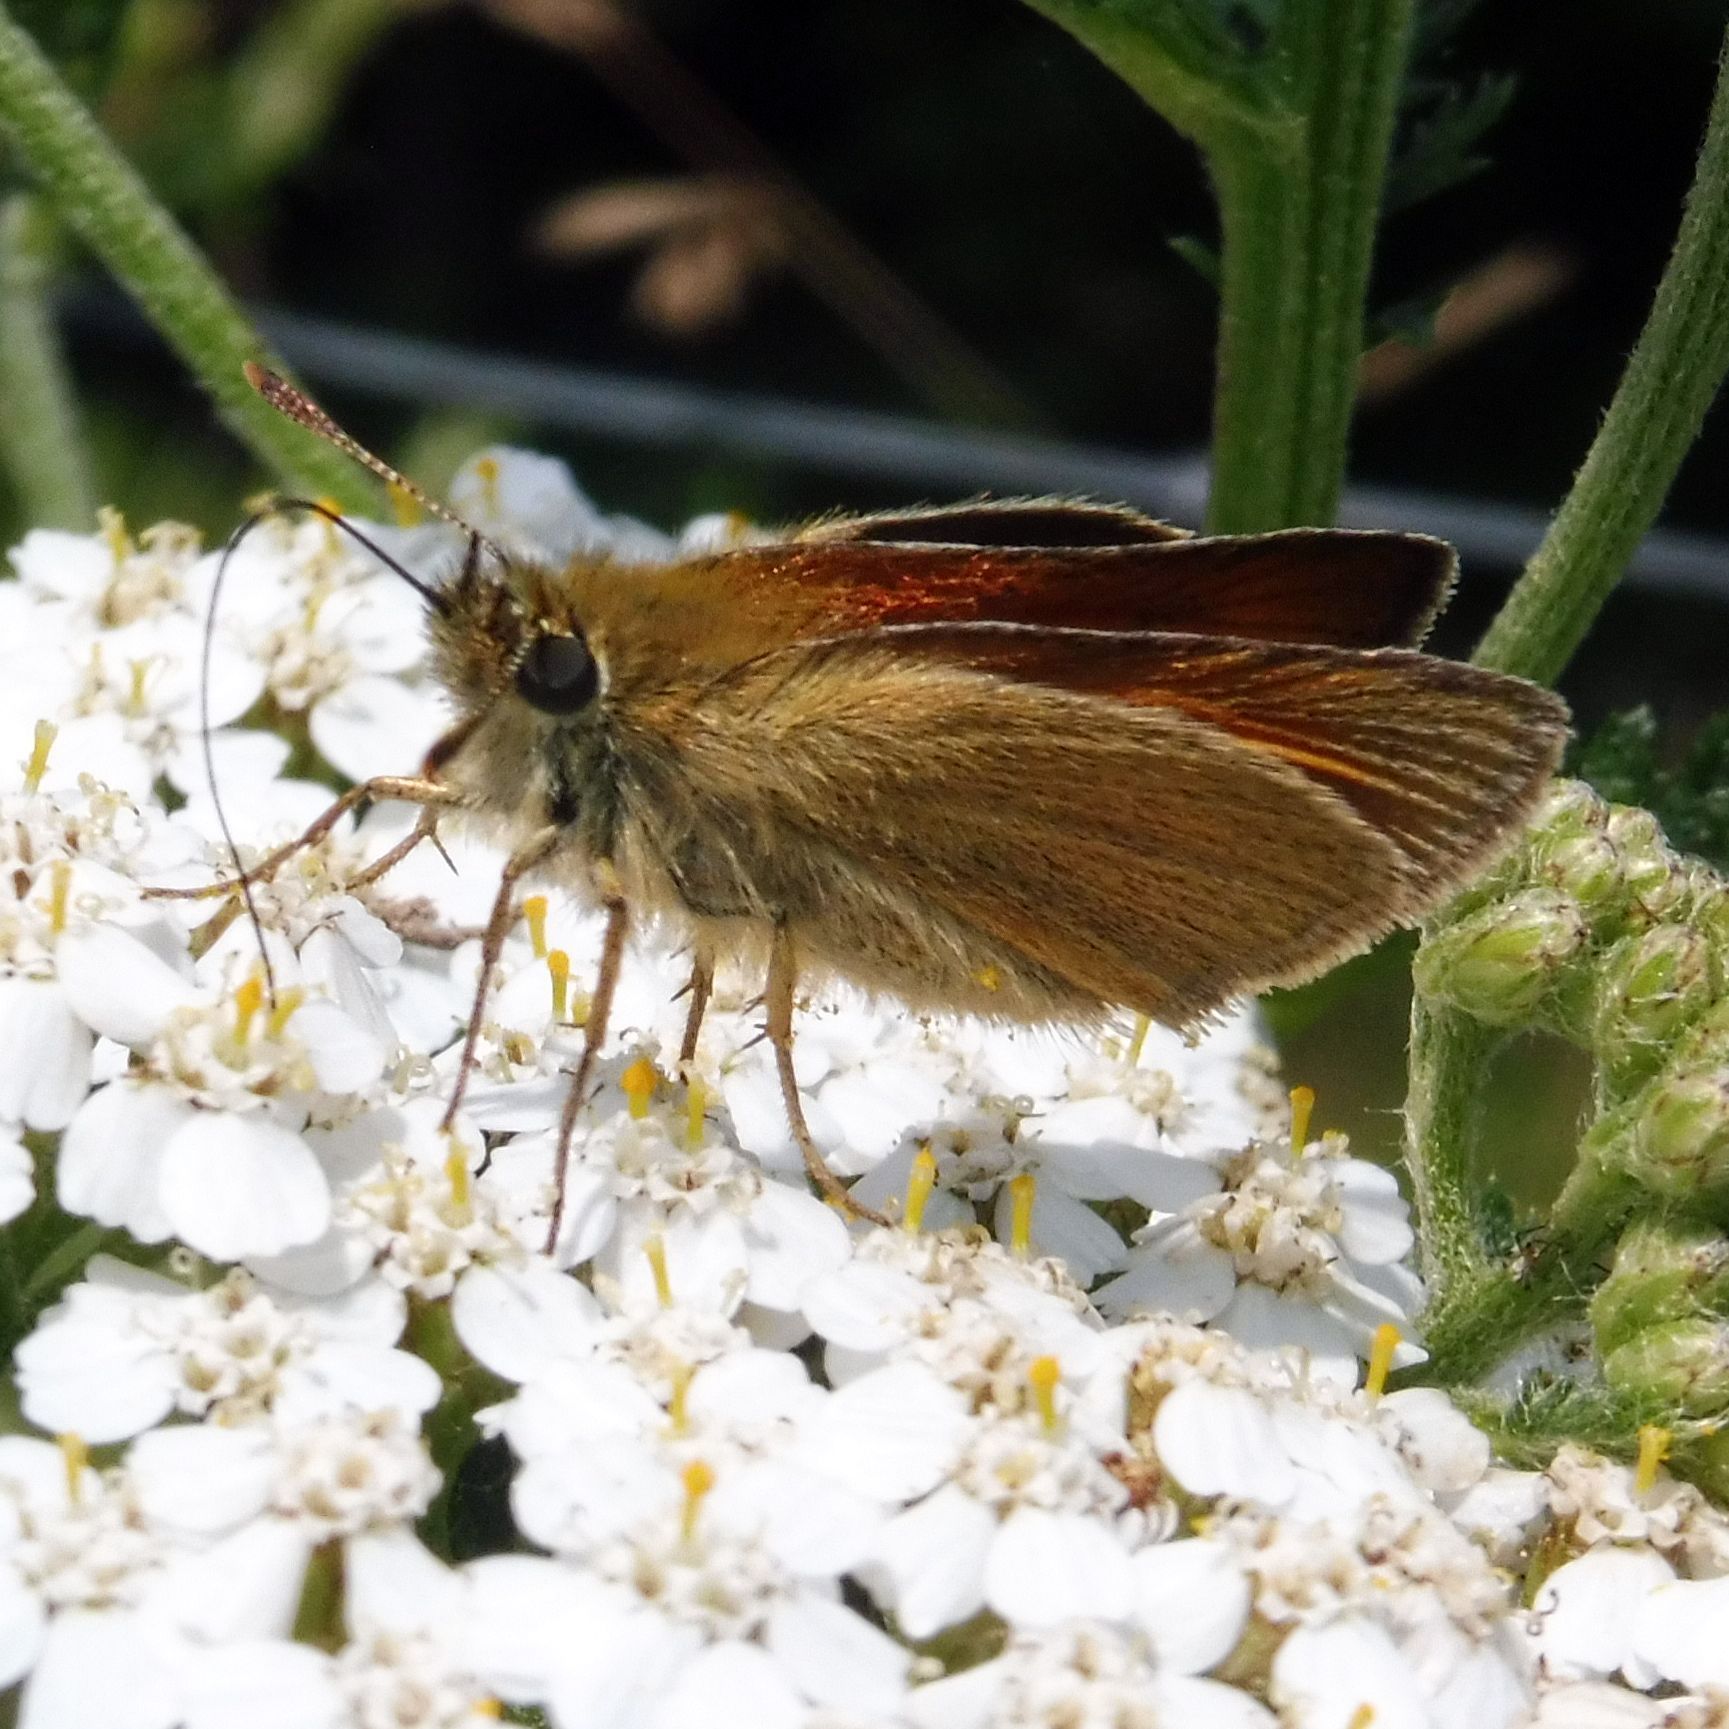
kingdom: Animalia
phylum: Arthropoda
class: Insecta
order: Lepidoptera
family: Hesperiidae
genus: Thymelicus
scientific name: Thymelicus sylvestris
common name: Small skipper
